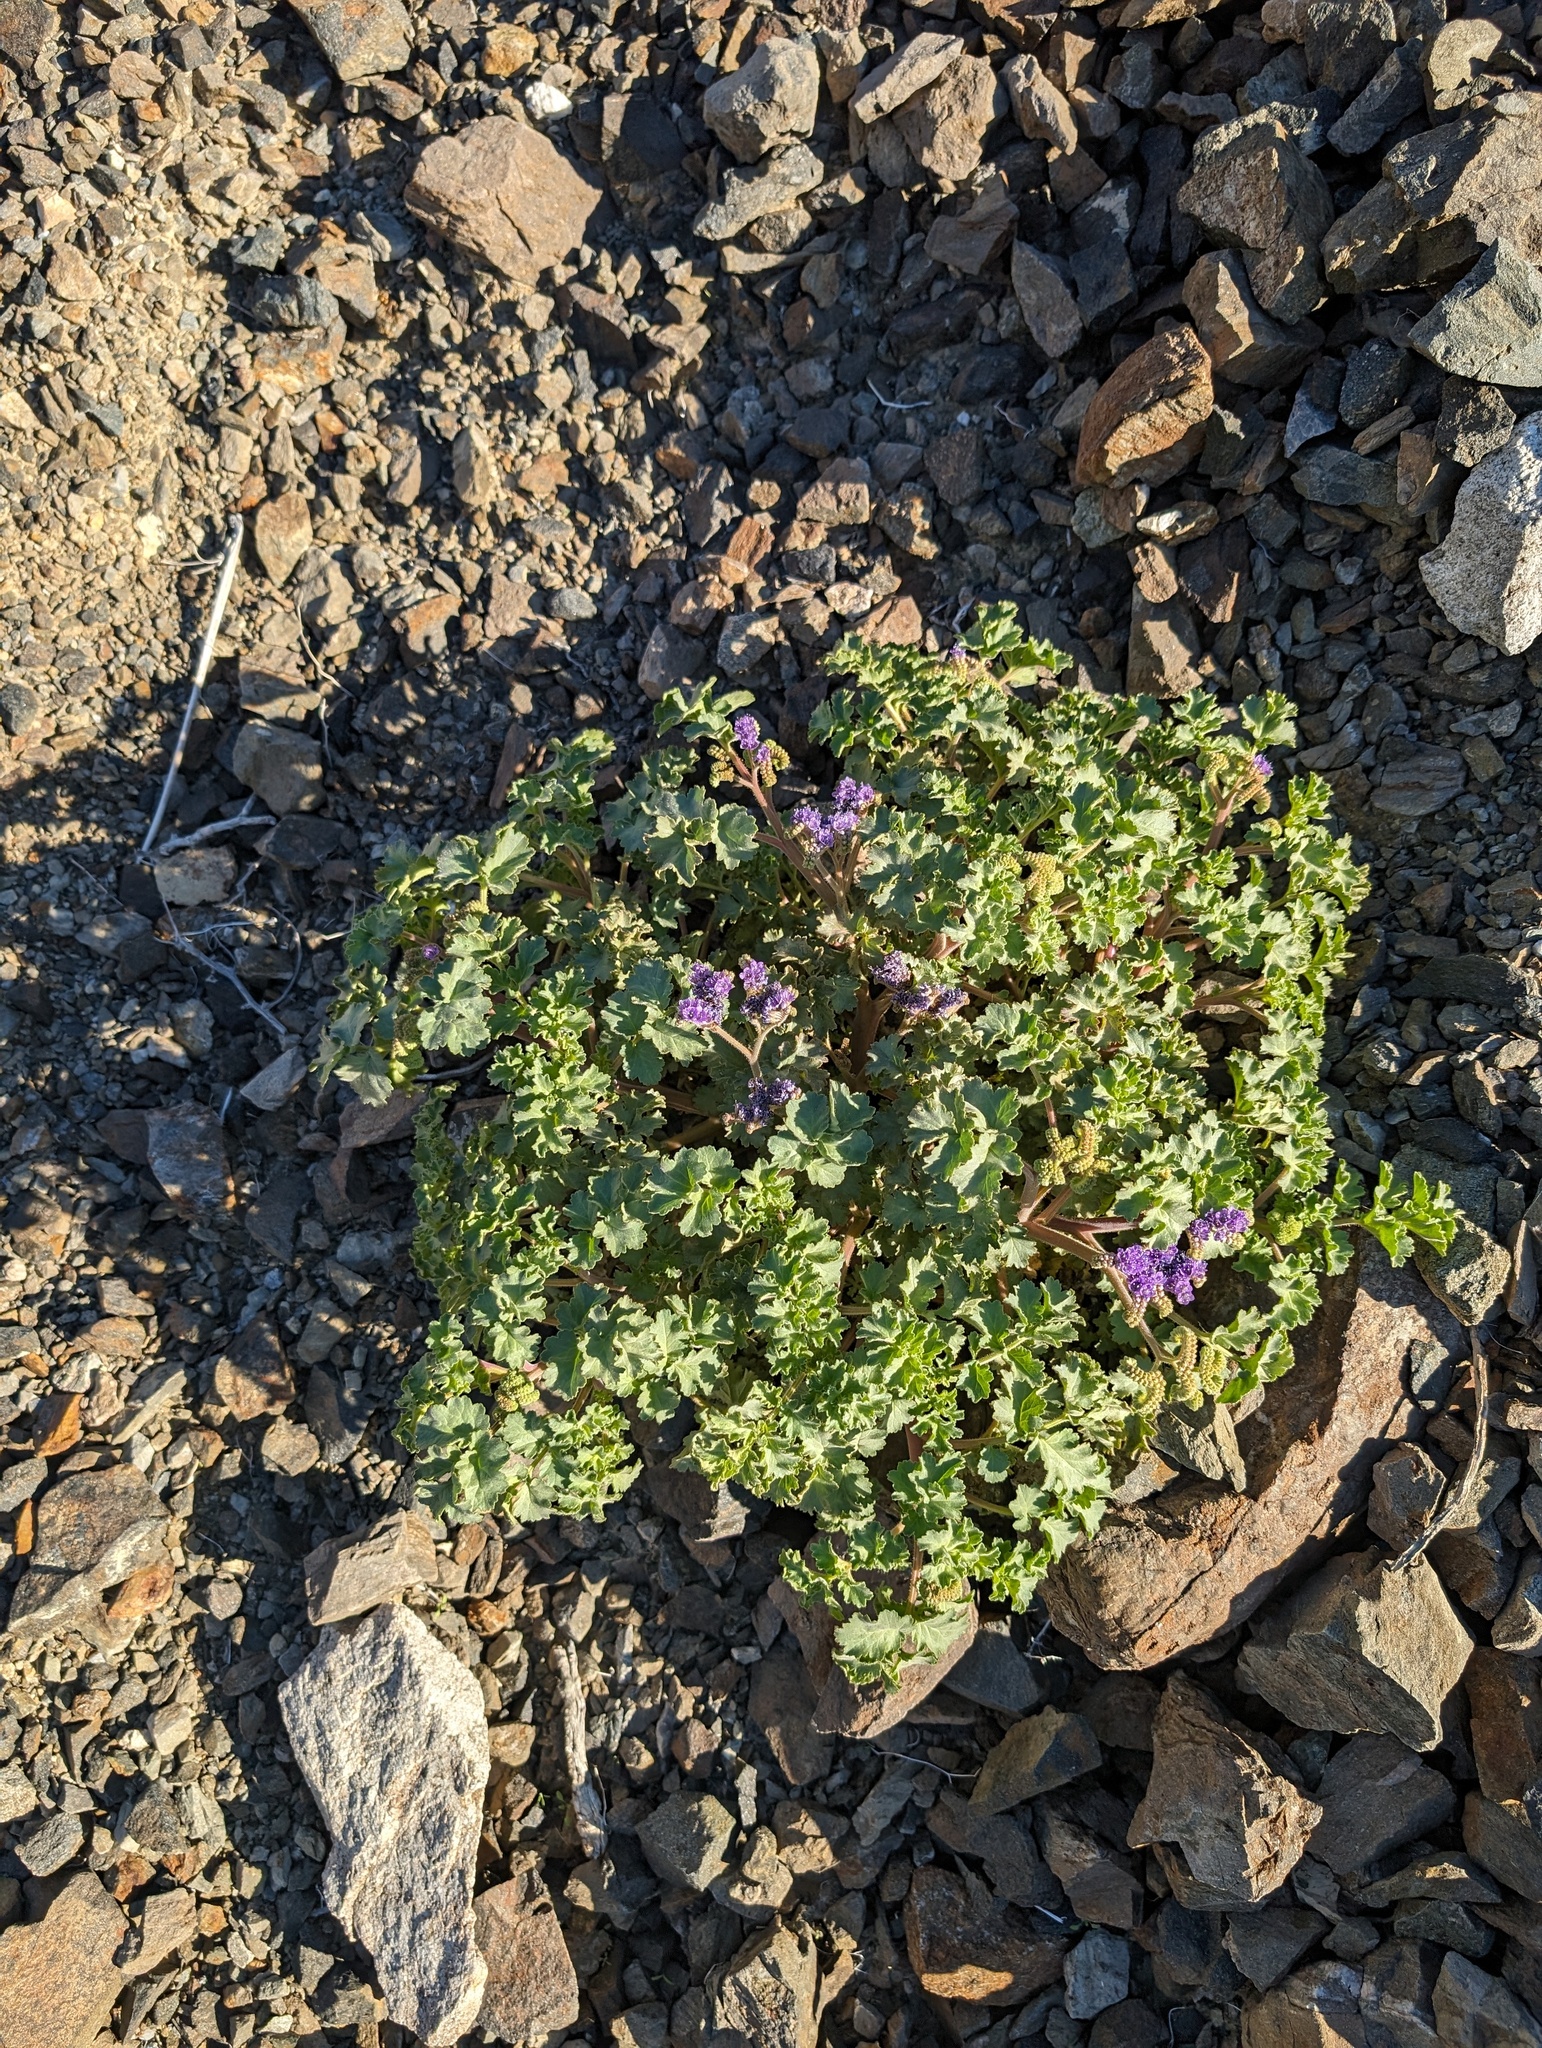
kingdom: Plantae
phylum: Tracheophyta
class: Magnoliopsida
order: Boraginales
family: Hydrophyllaceae
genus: Phacelia
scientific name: Phacelia pedicellata
